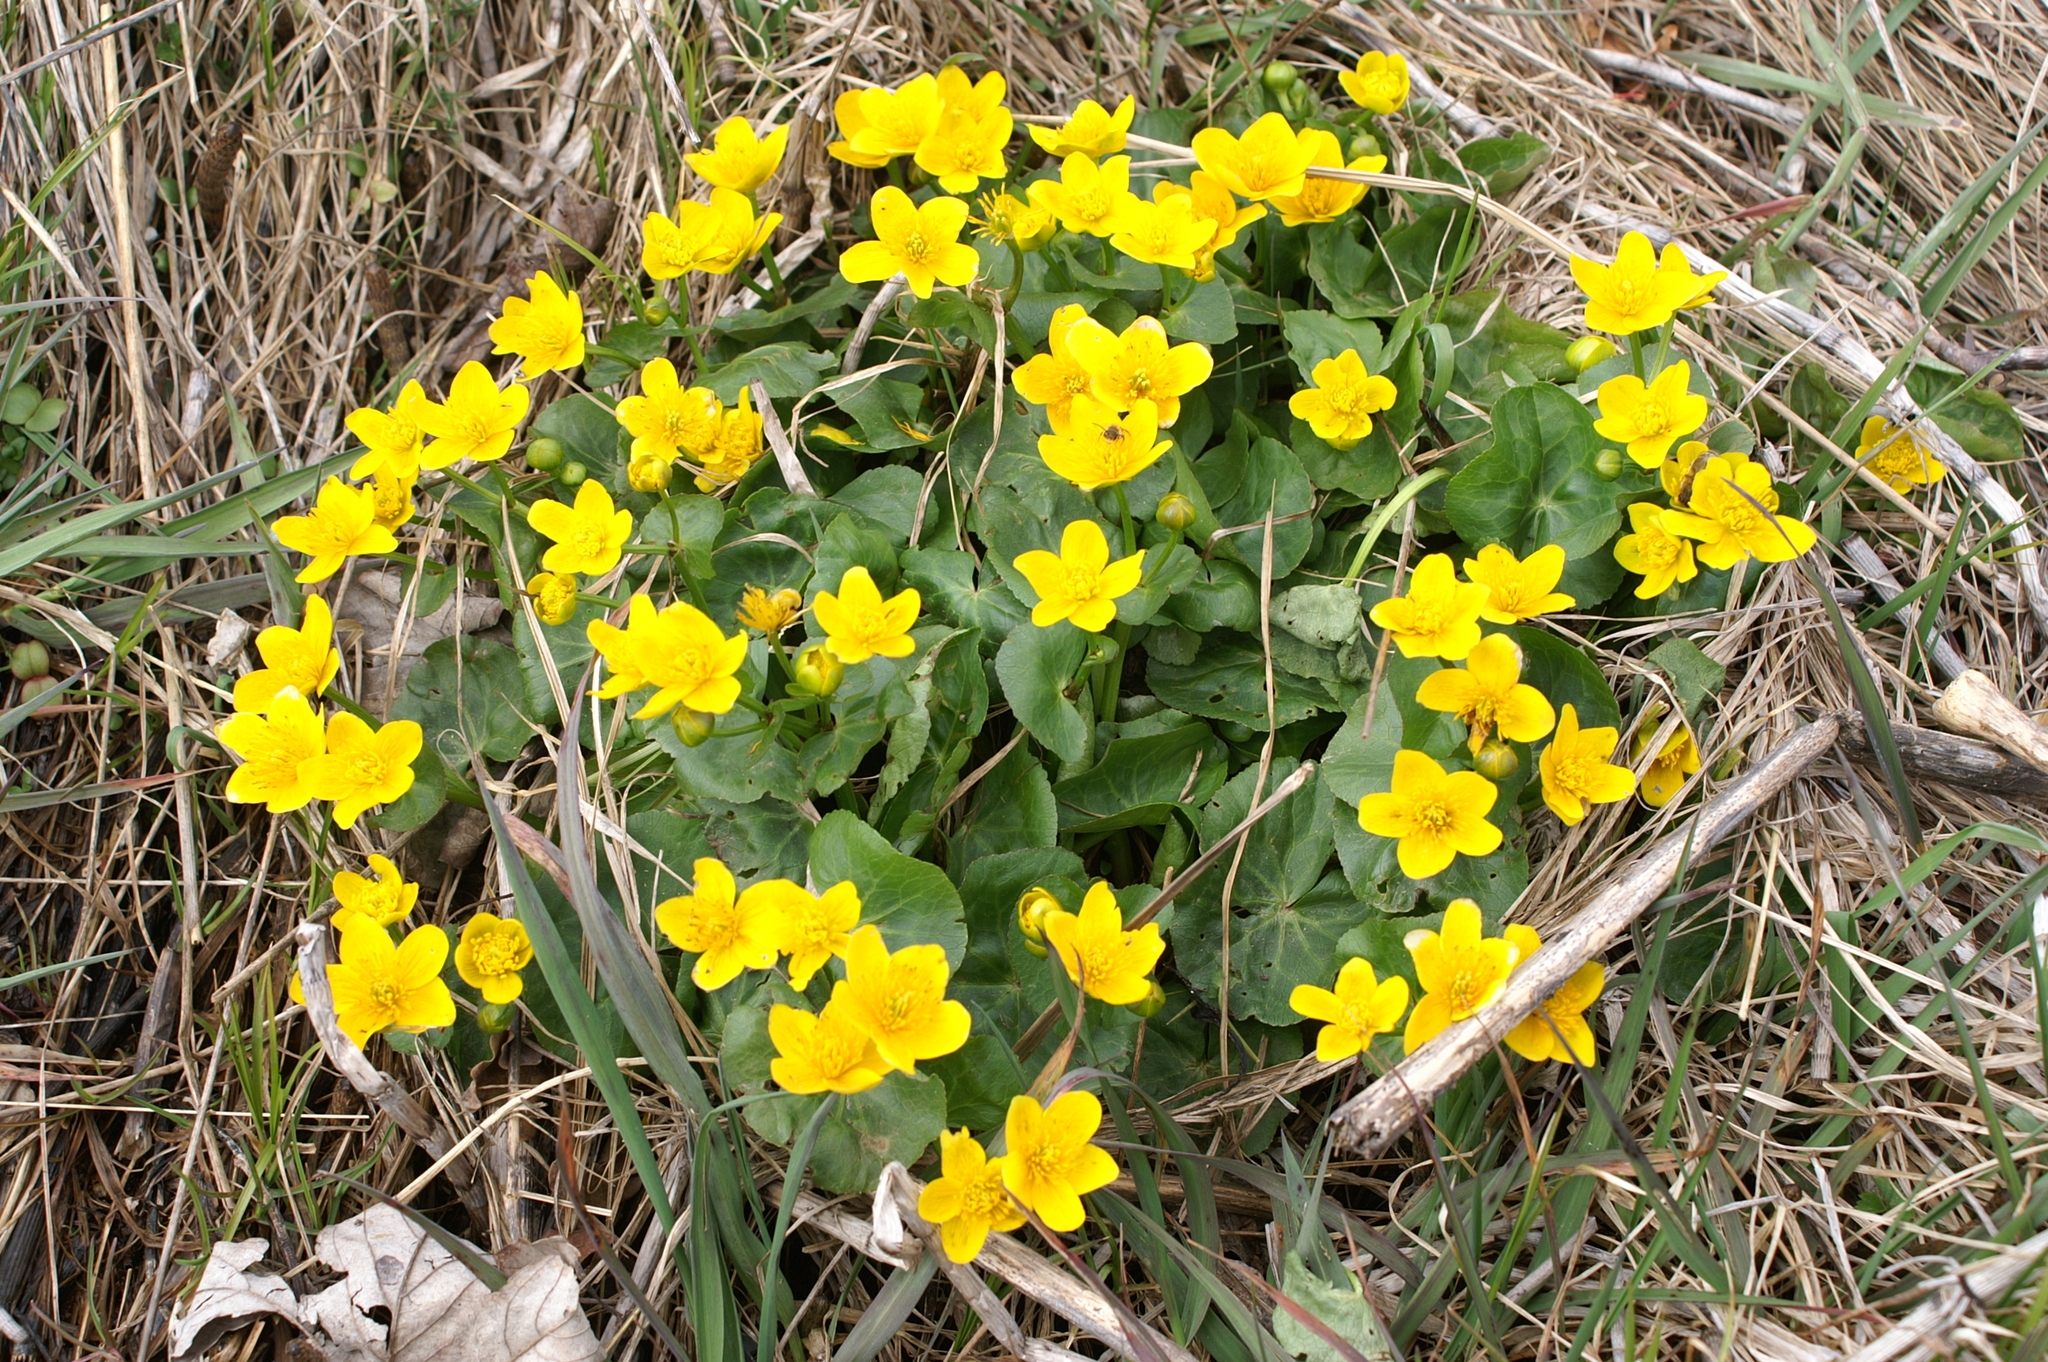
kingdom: Plantae
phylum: Tracheophyta
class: Magnoliopsida
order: Ranunculales
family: Ranunculaceae
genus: Caltha
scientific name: Caltha palustris
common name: Marsh marigold
